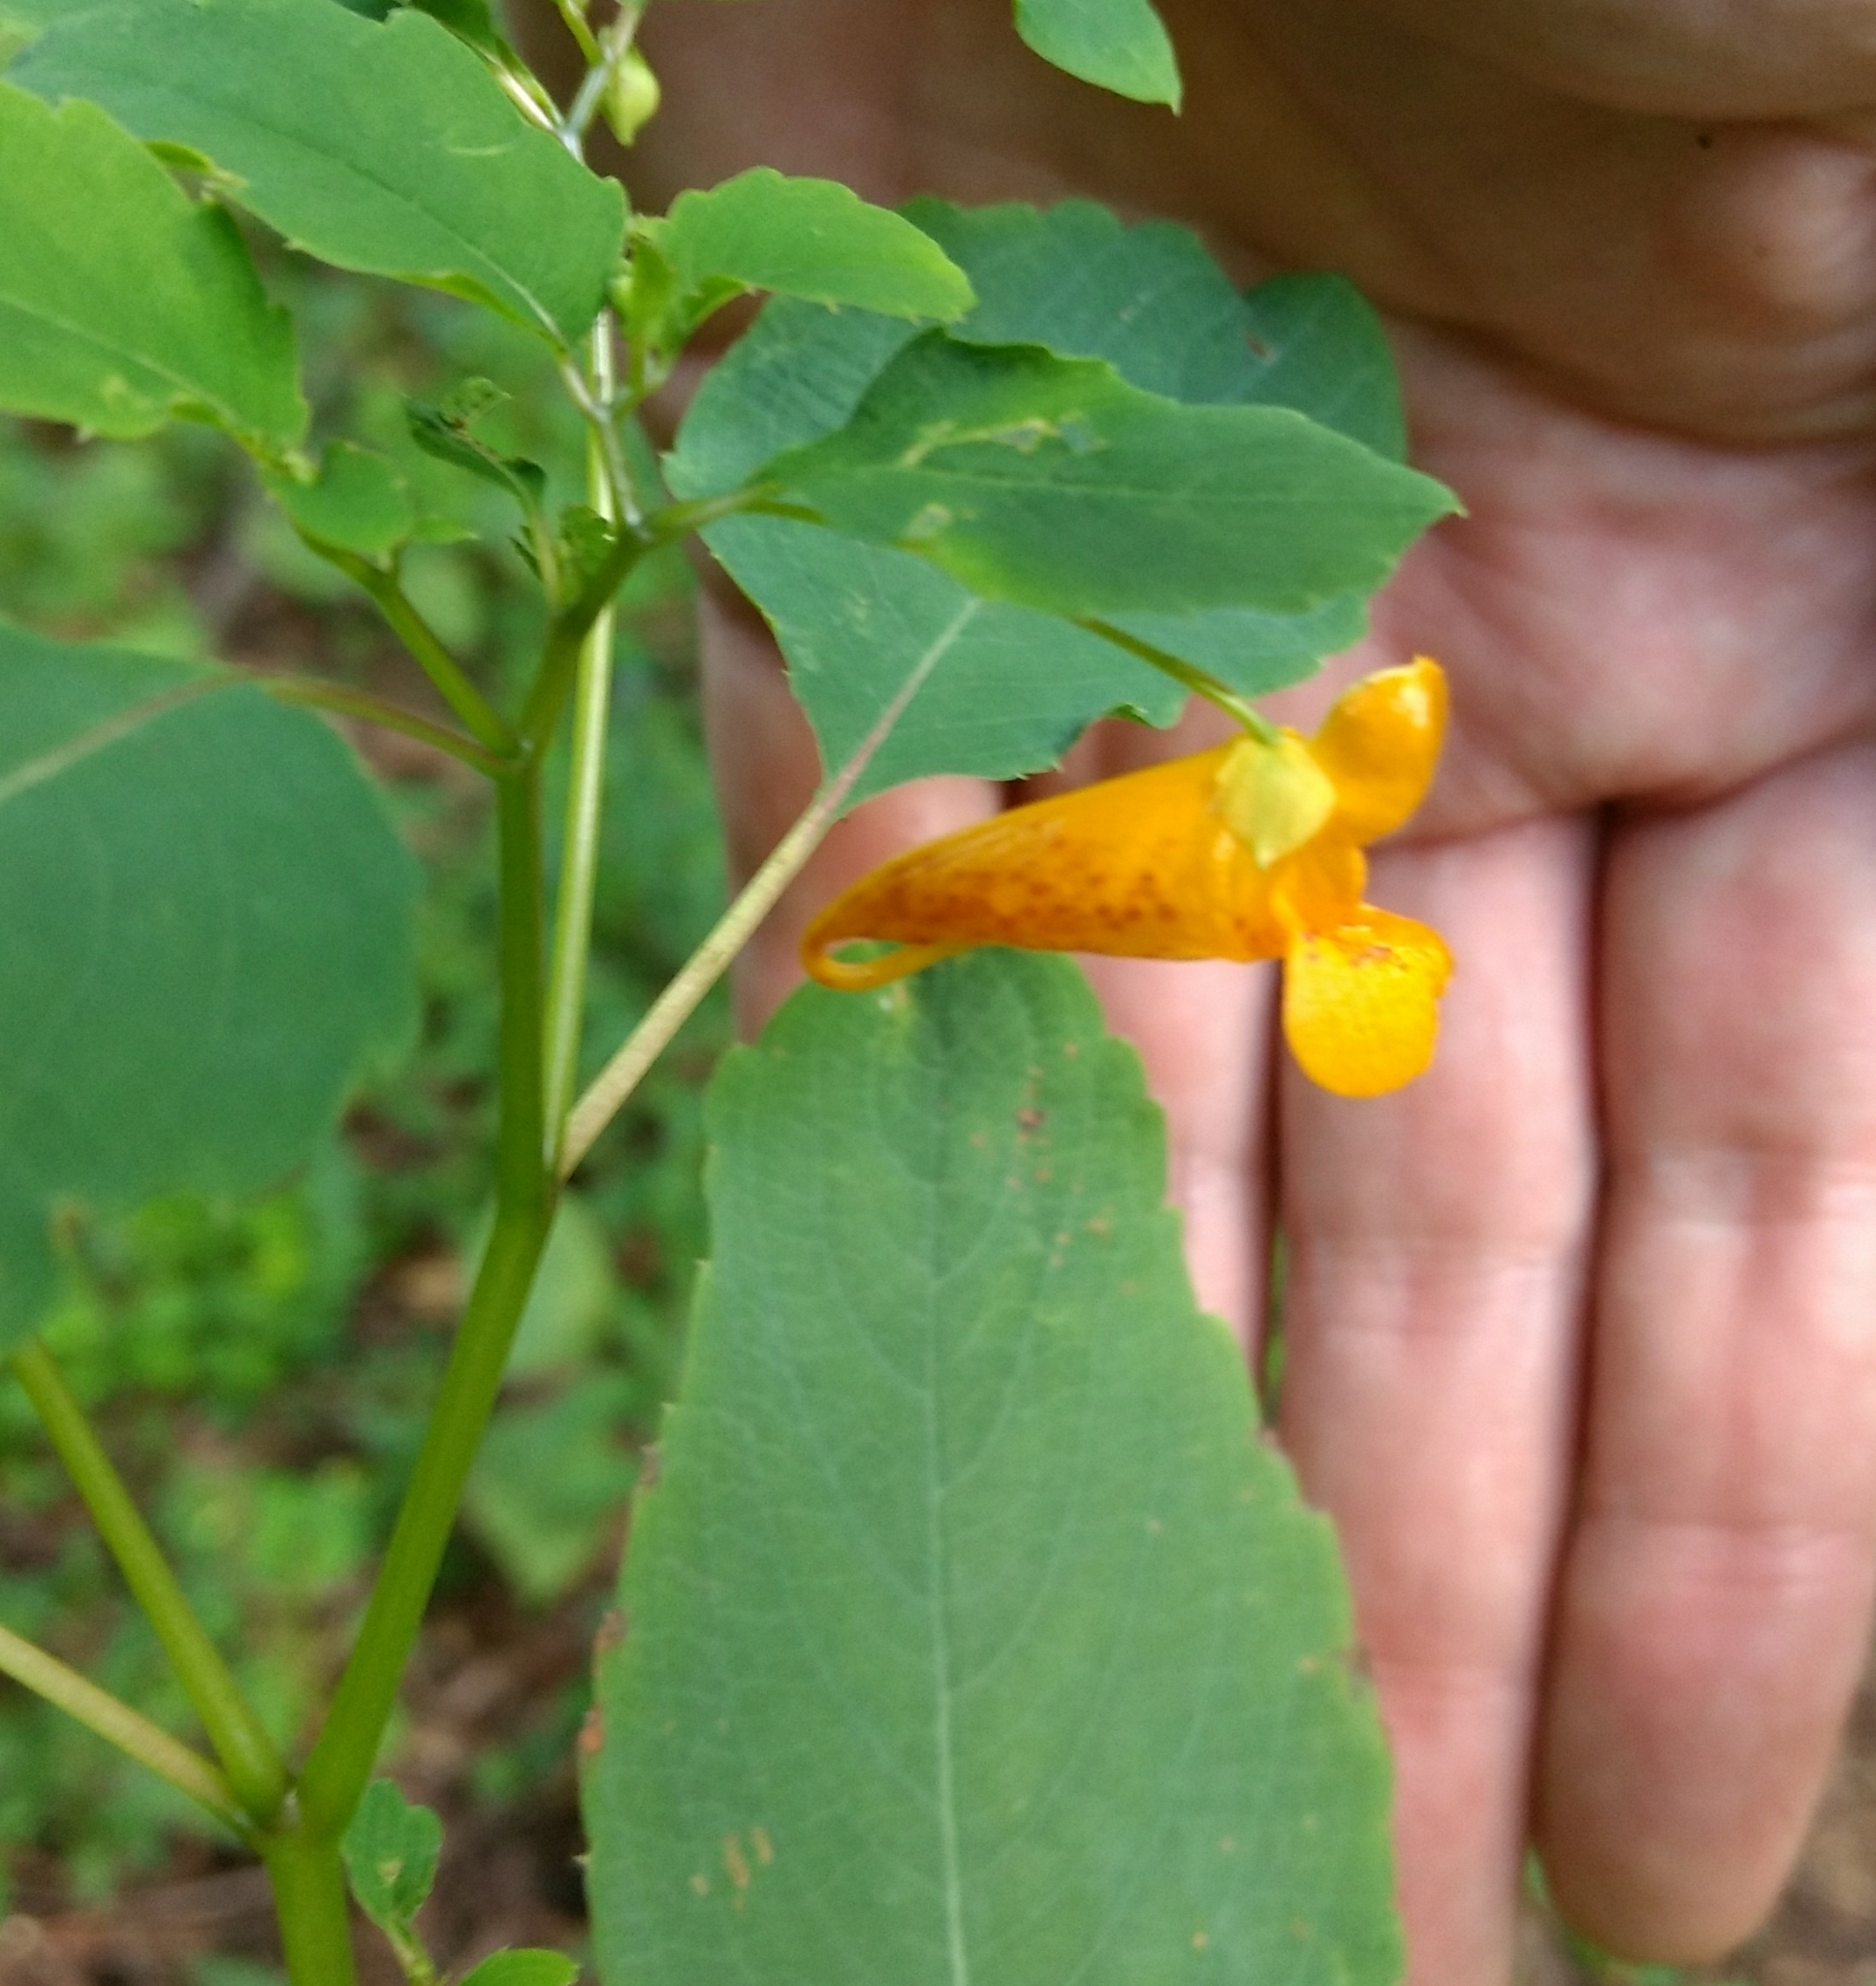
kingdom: Plantae
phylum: Tracheophyta
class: Magnoliopsida
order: Ericales
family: Balsaminaceae
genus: Impatiens
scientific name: Impatiens capensis
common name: Orange balsam
